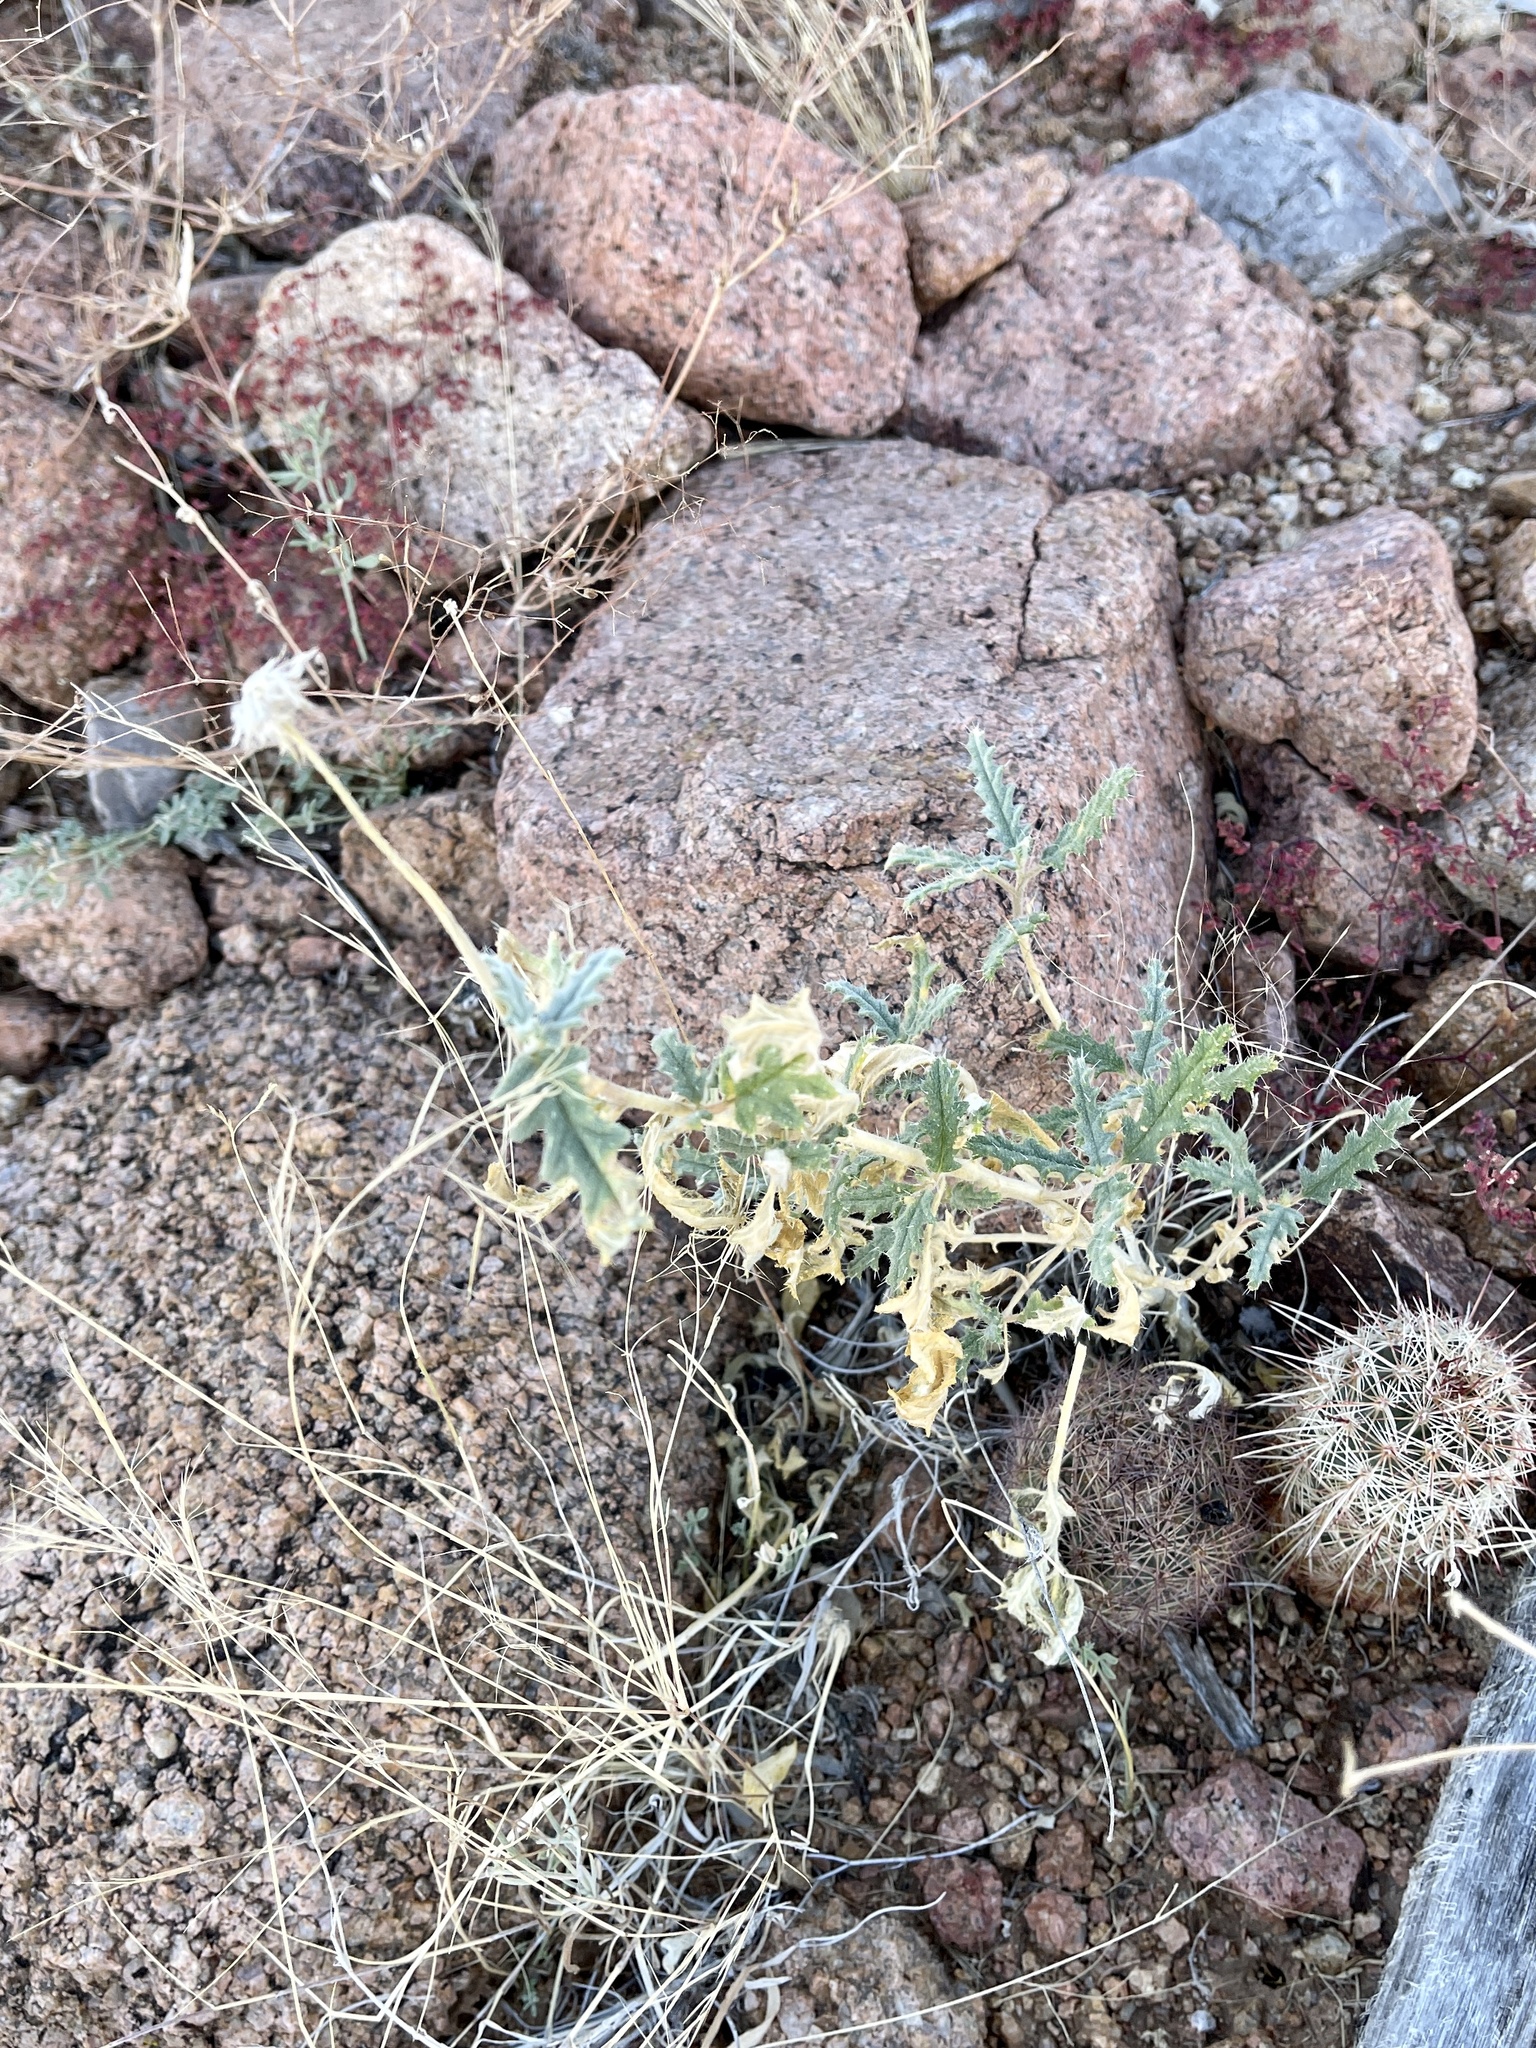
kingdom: Plantae
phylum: Tracheophyta
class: Magnoliopsida
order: Cornales
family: Loasaceae
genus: Cevallia
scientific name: Cevallia sinuata
